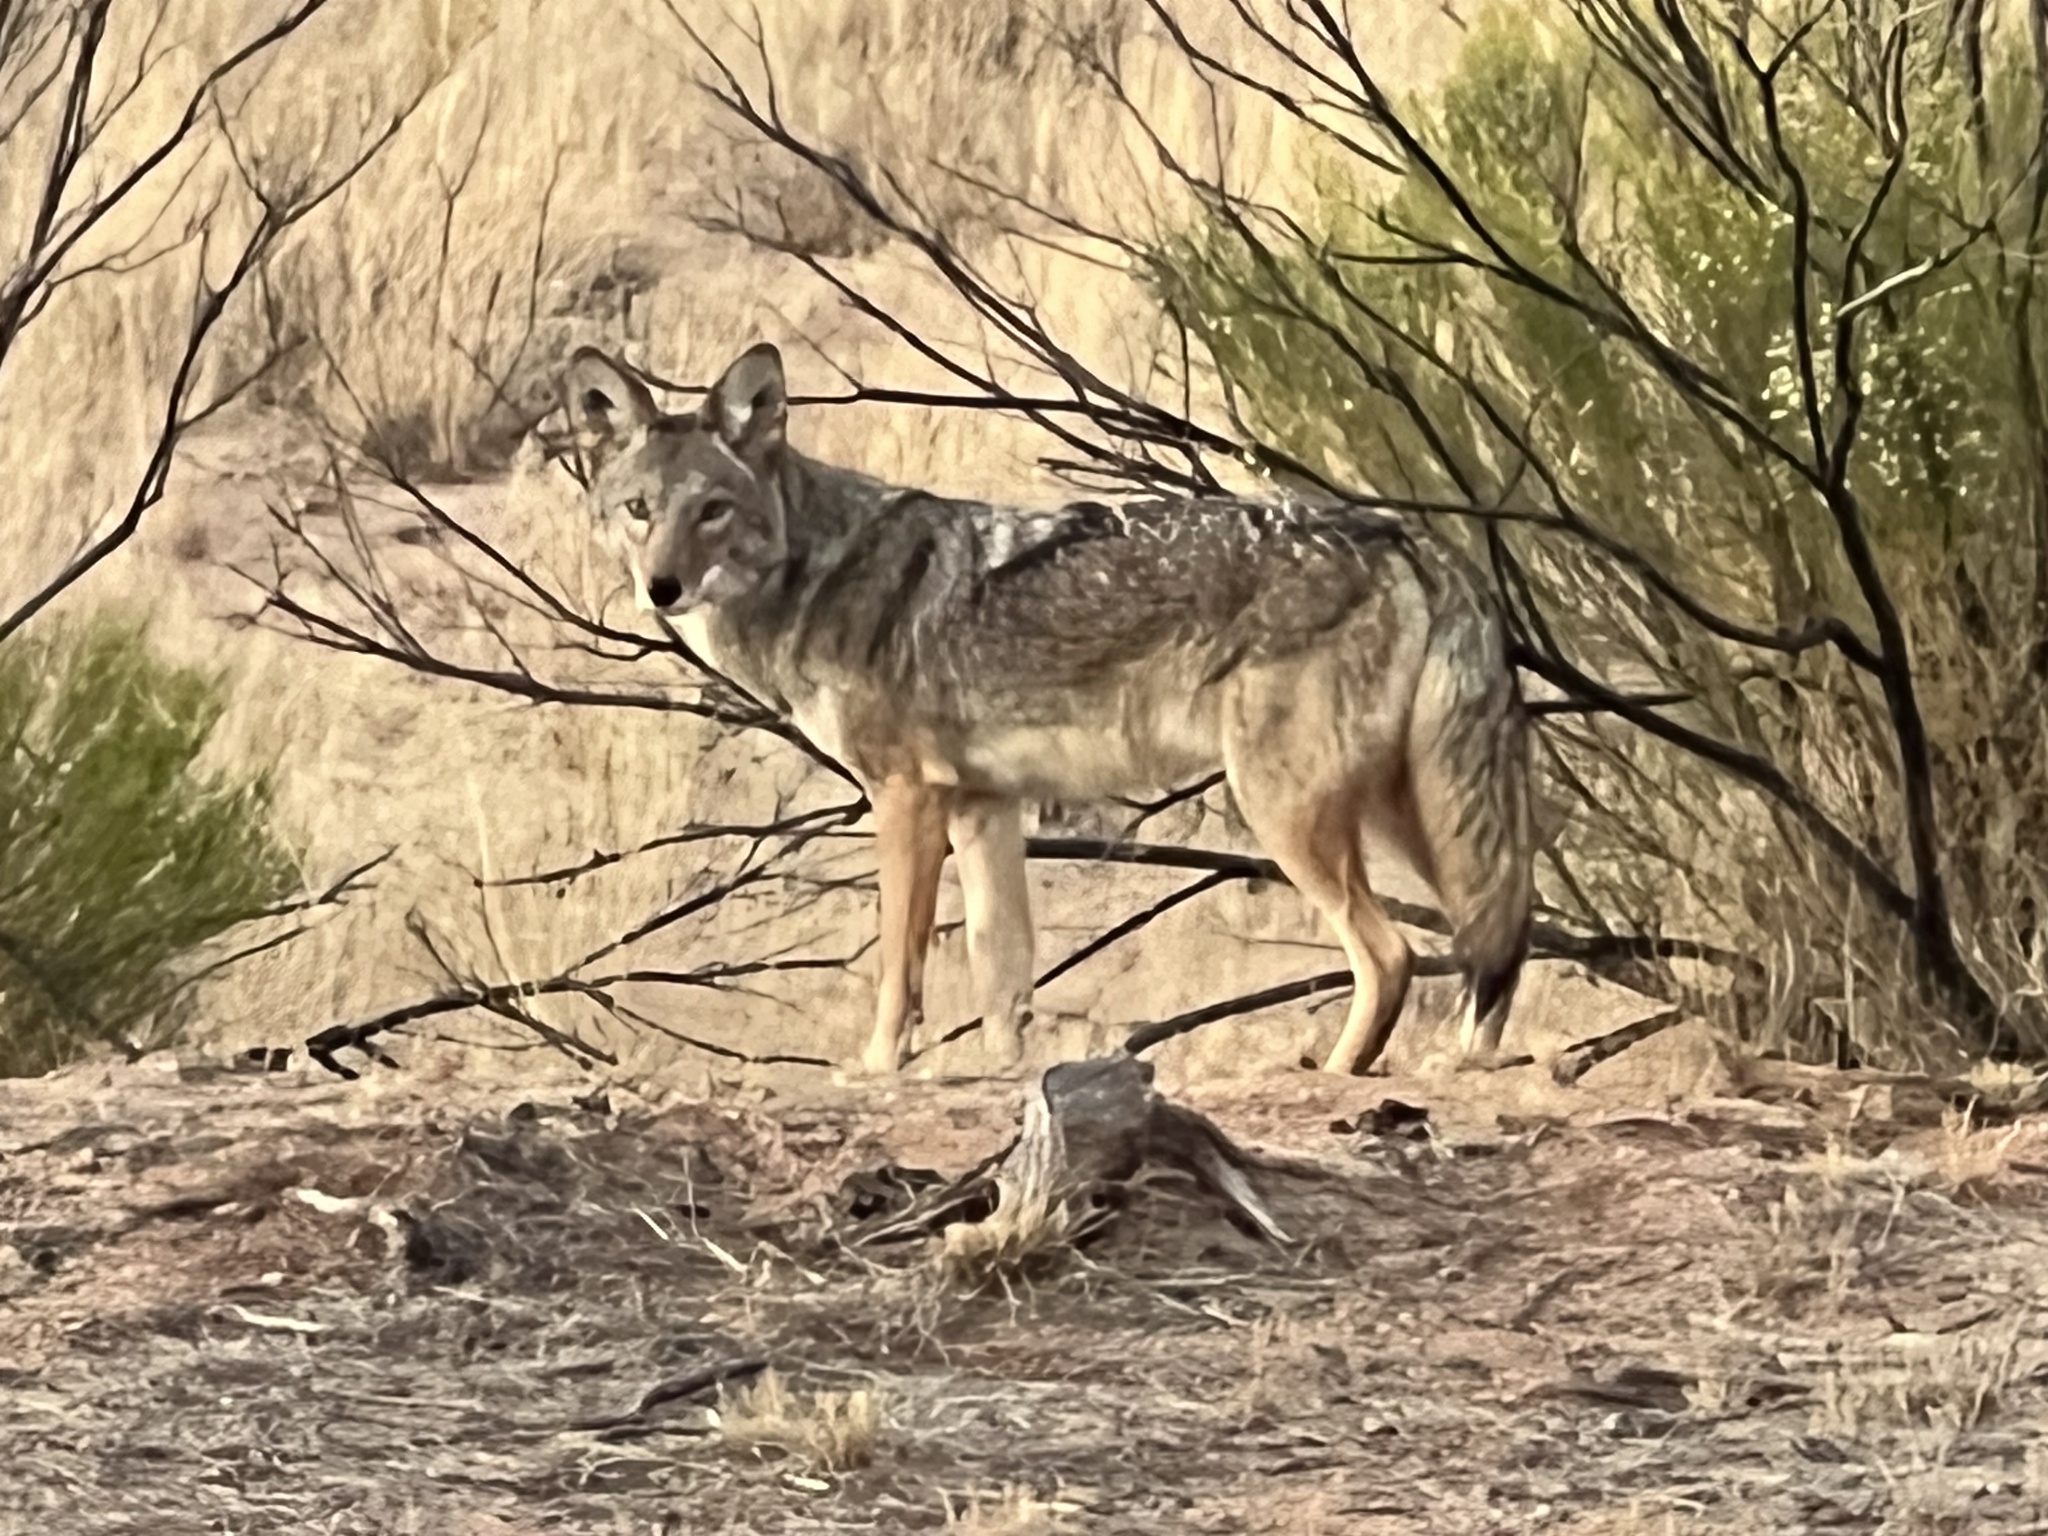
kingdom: Animalia
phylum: Chordata
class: Mammalia
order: Carnivora
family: Canidae
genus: Canis
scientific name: Canis latrans
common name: Coyote
